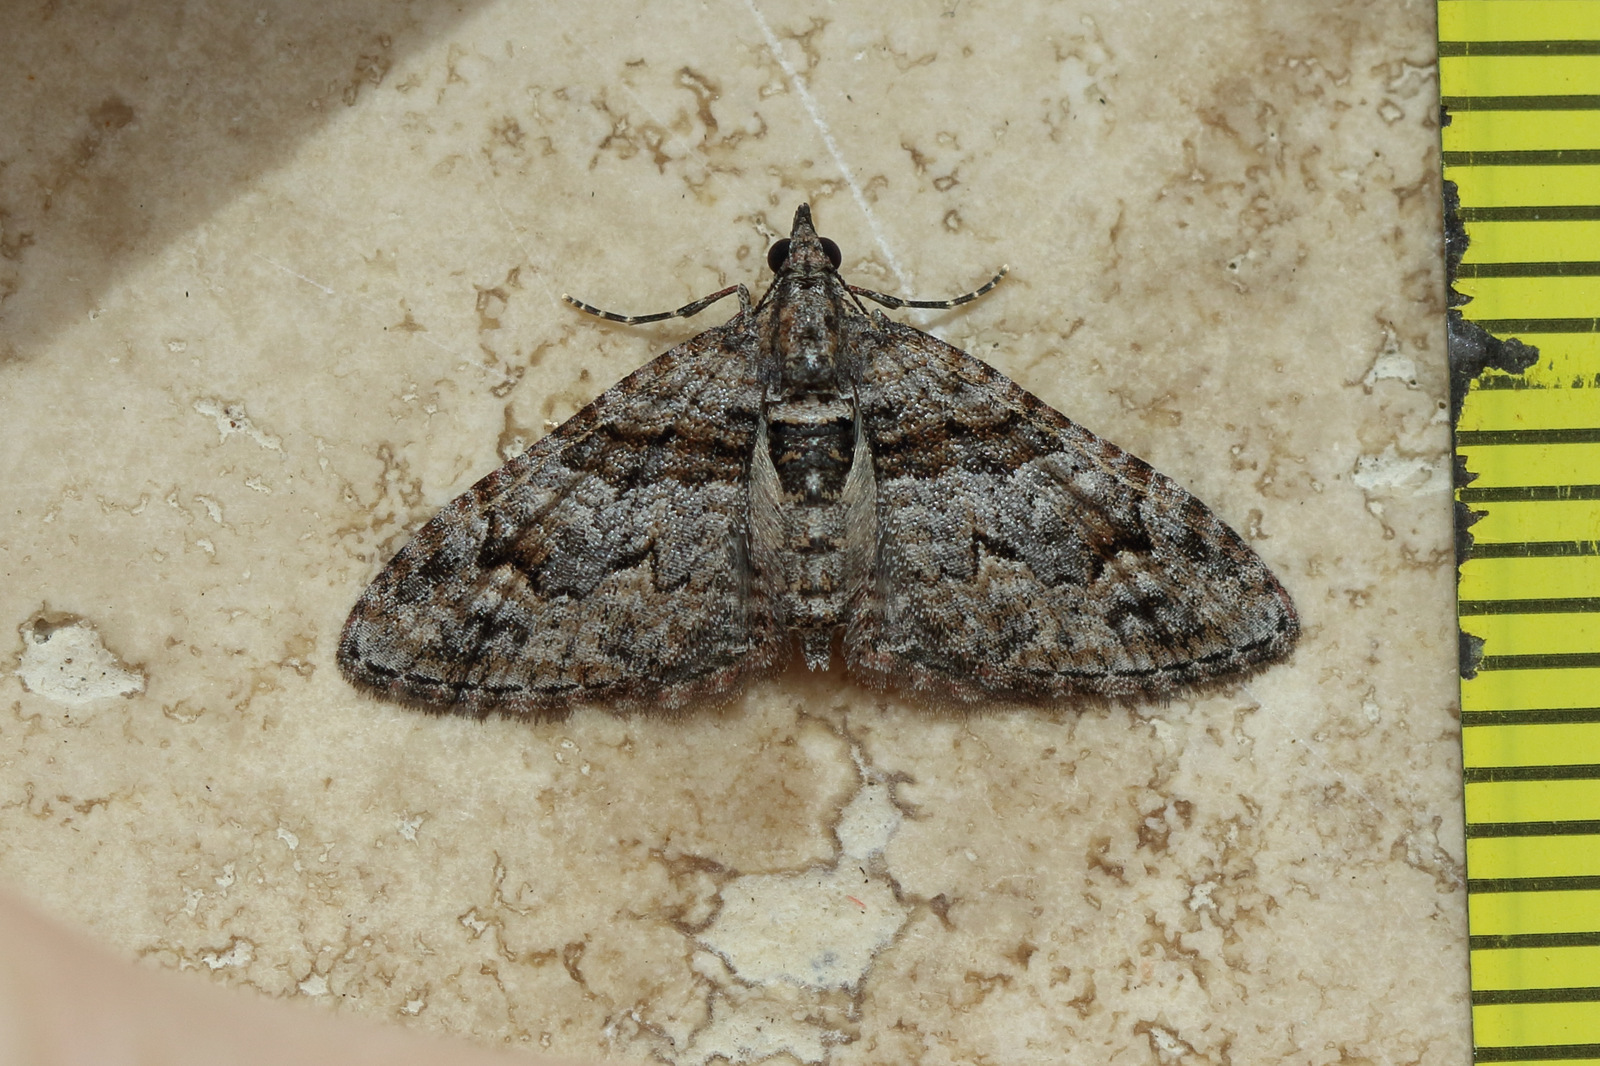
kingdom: Animalia
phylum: Arthropoda
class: Insecta
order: Lepidoptera
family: Geometridae
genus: Phrissogonus
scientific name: Phrissogonus laticostata
